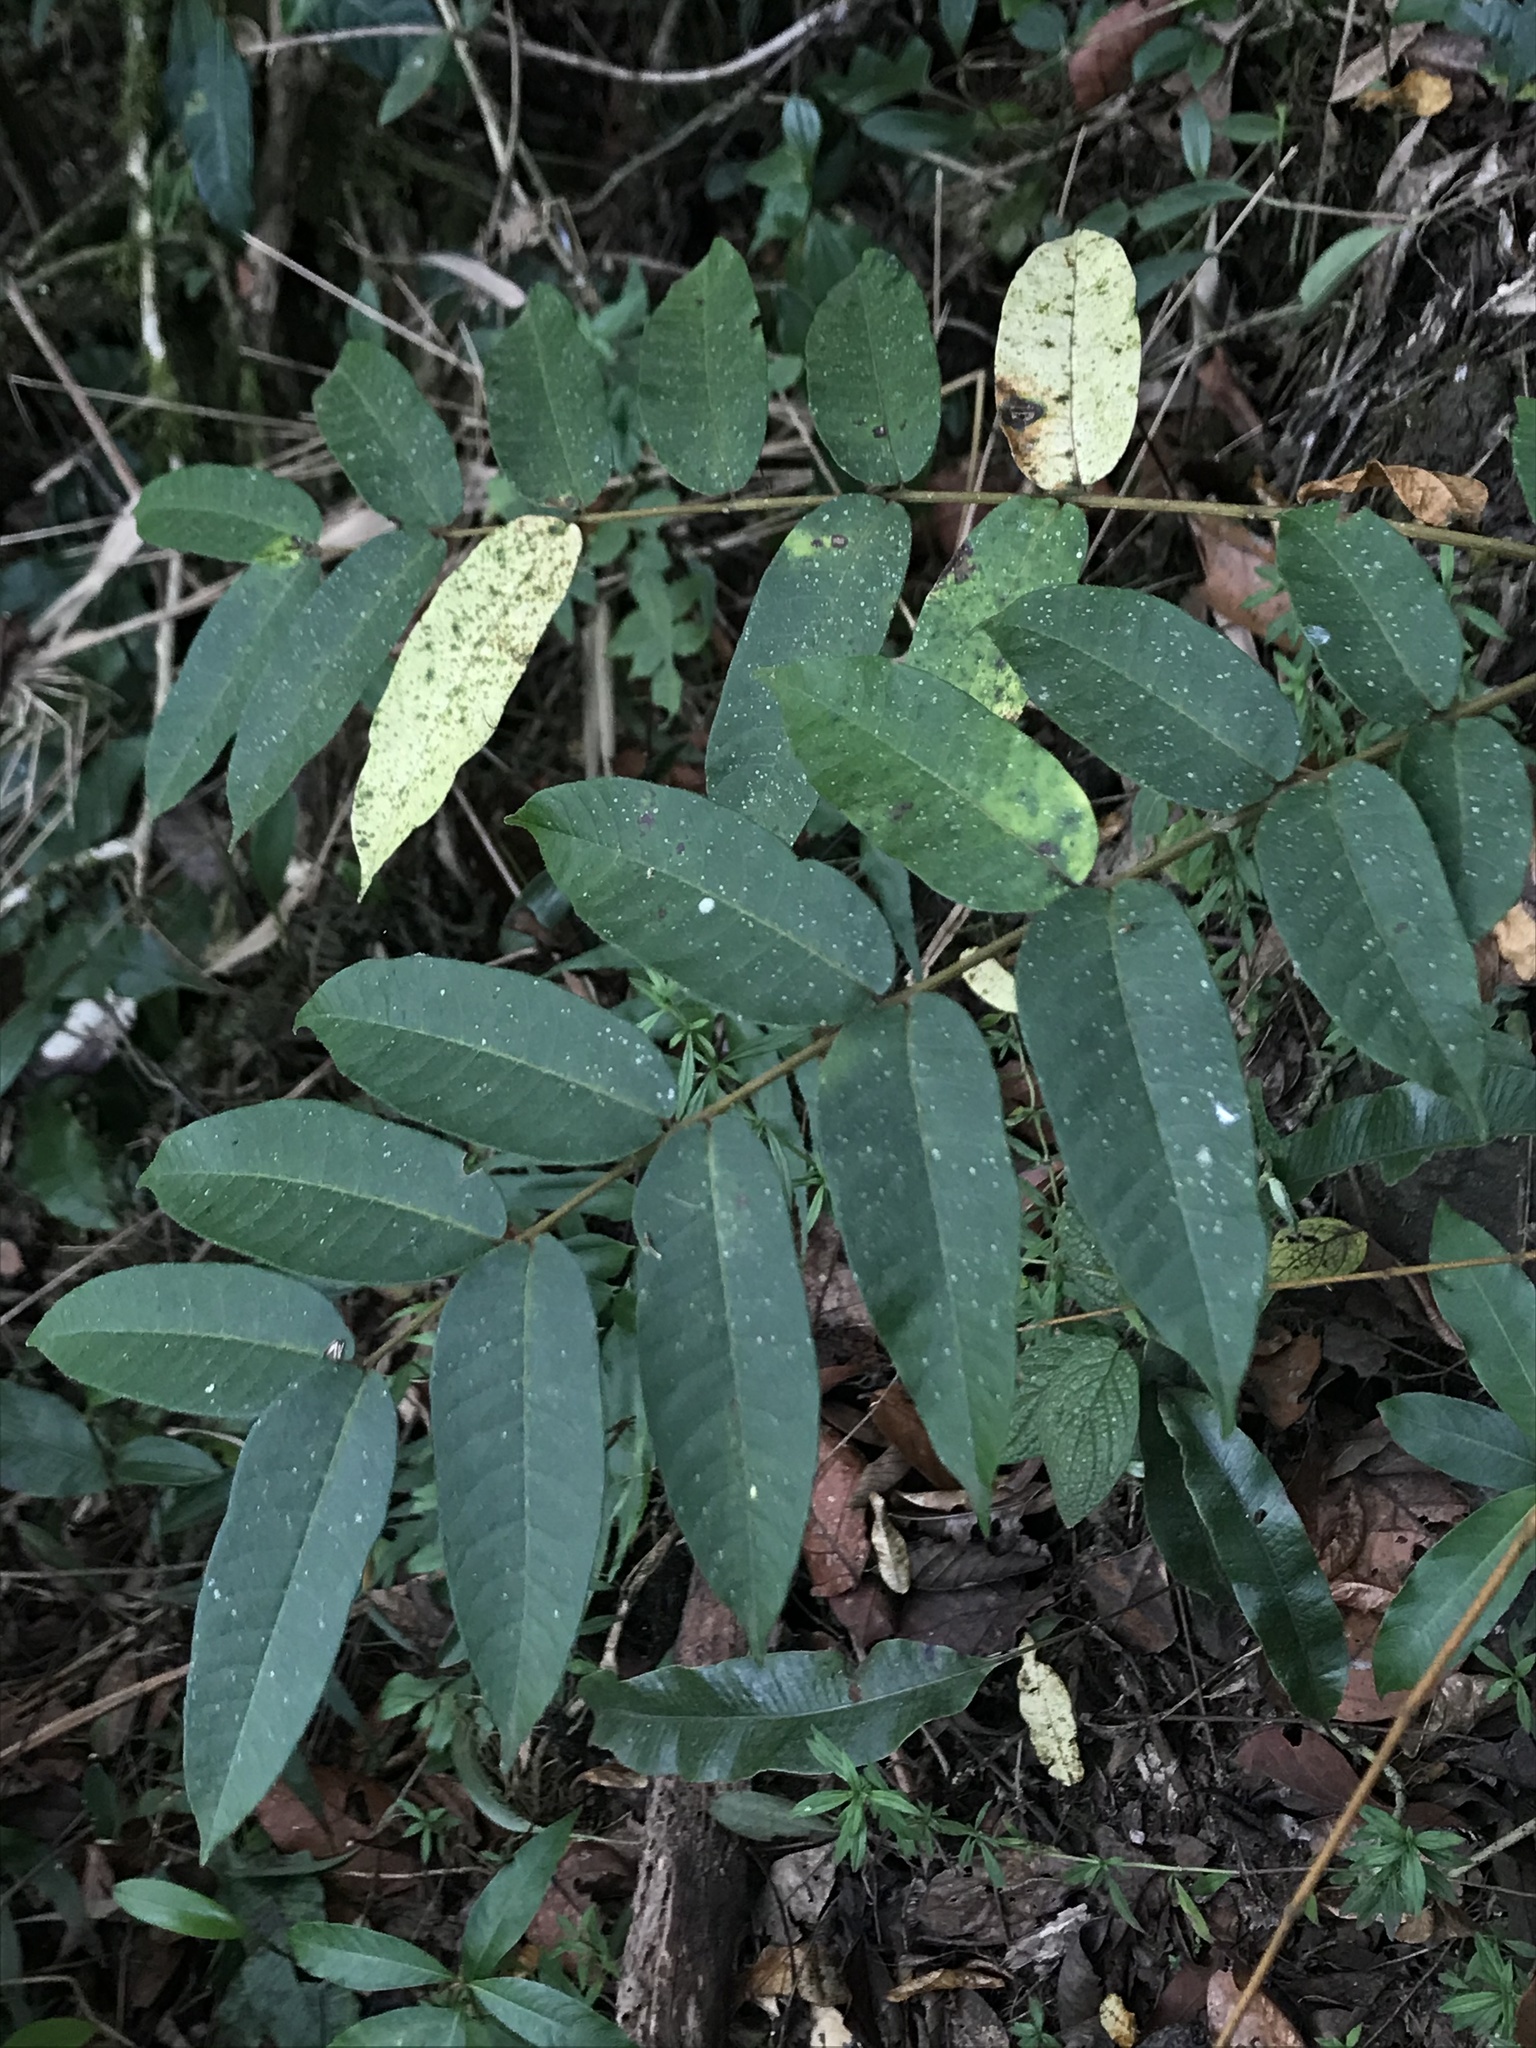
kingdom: Plantae
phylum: Tracheophyta
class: Magnoliopsida
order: Sapindales
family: Meliaceae
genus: Cedrela
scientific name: Cedrela montana
